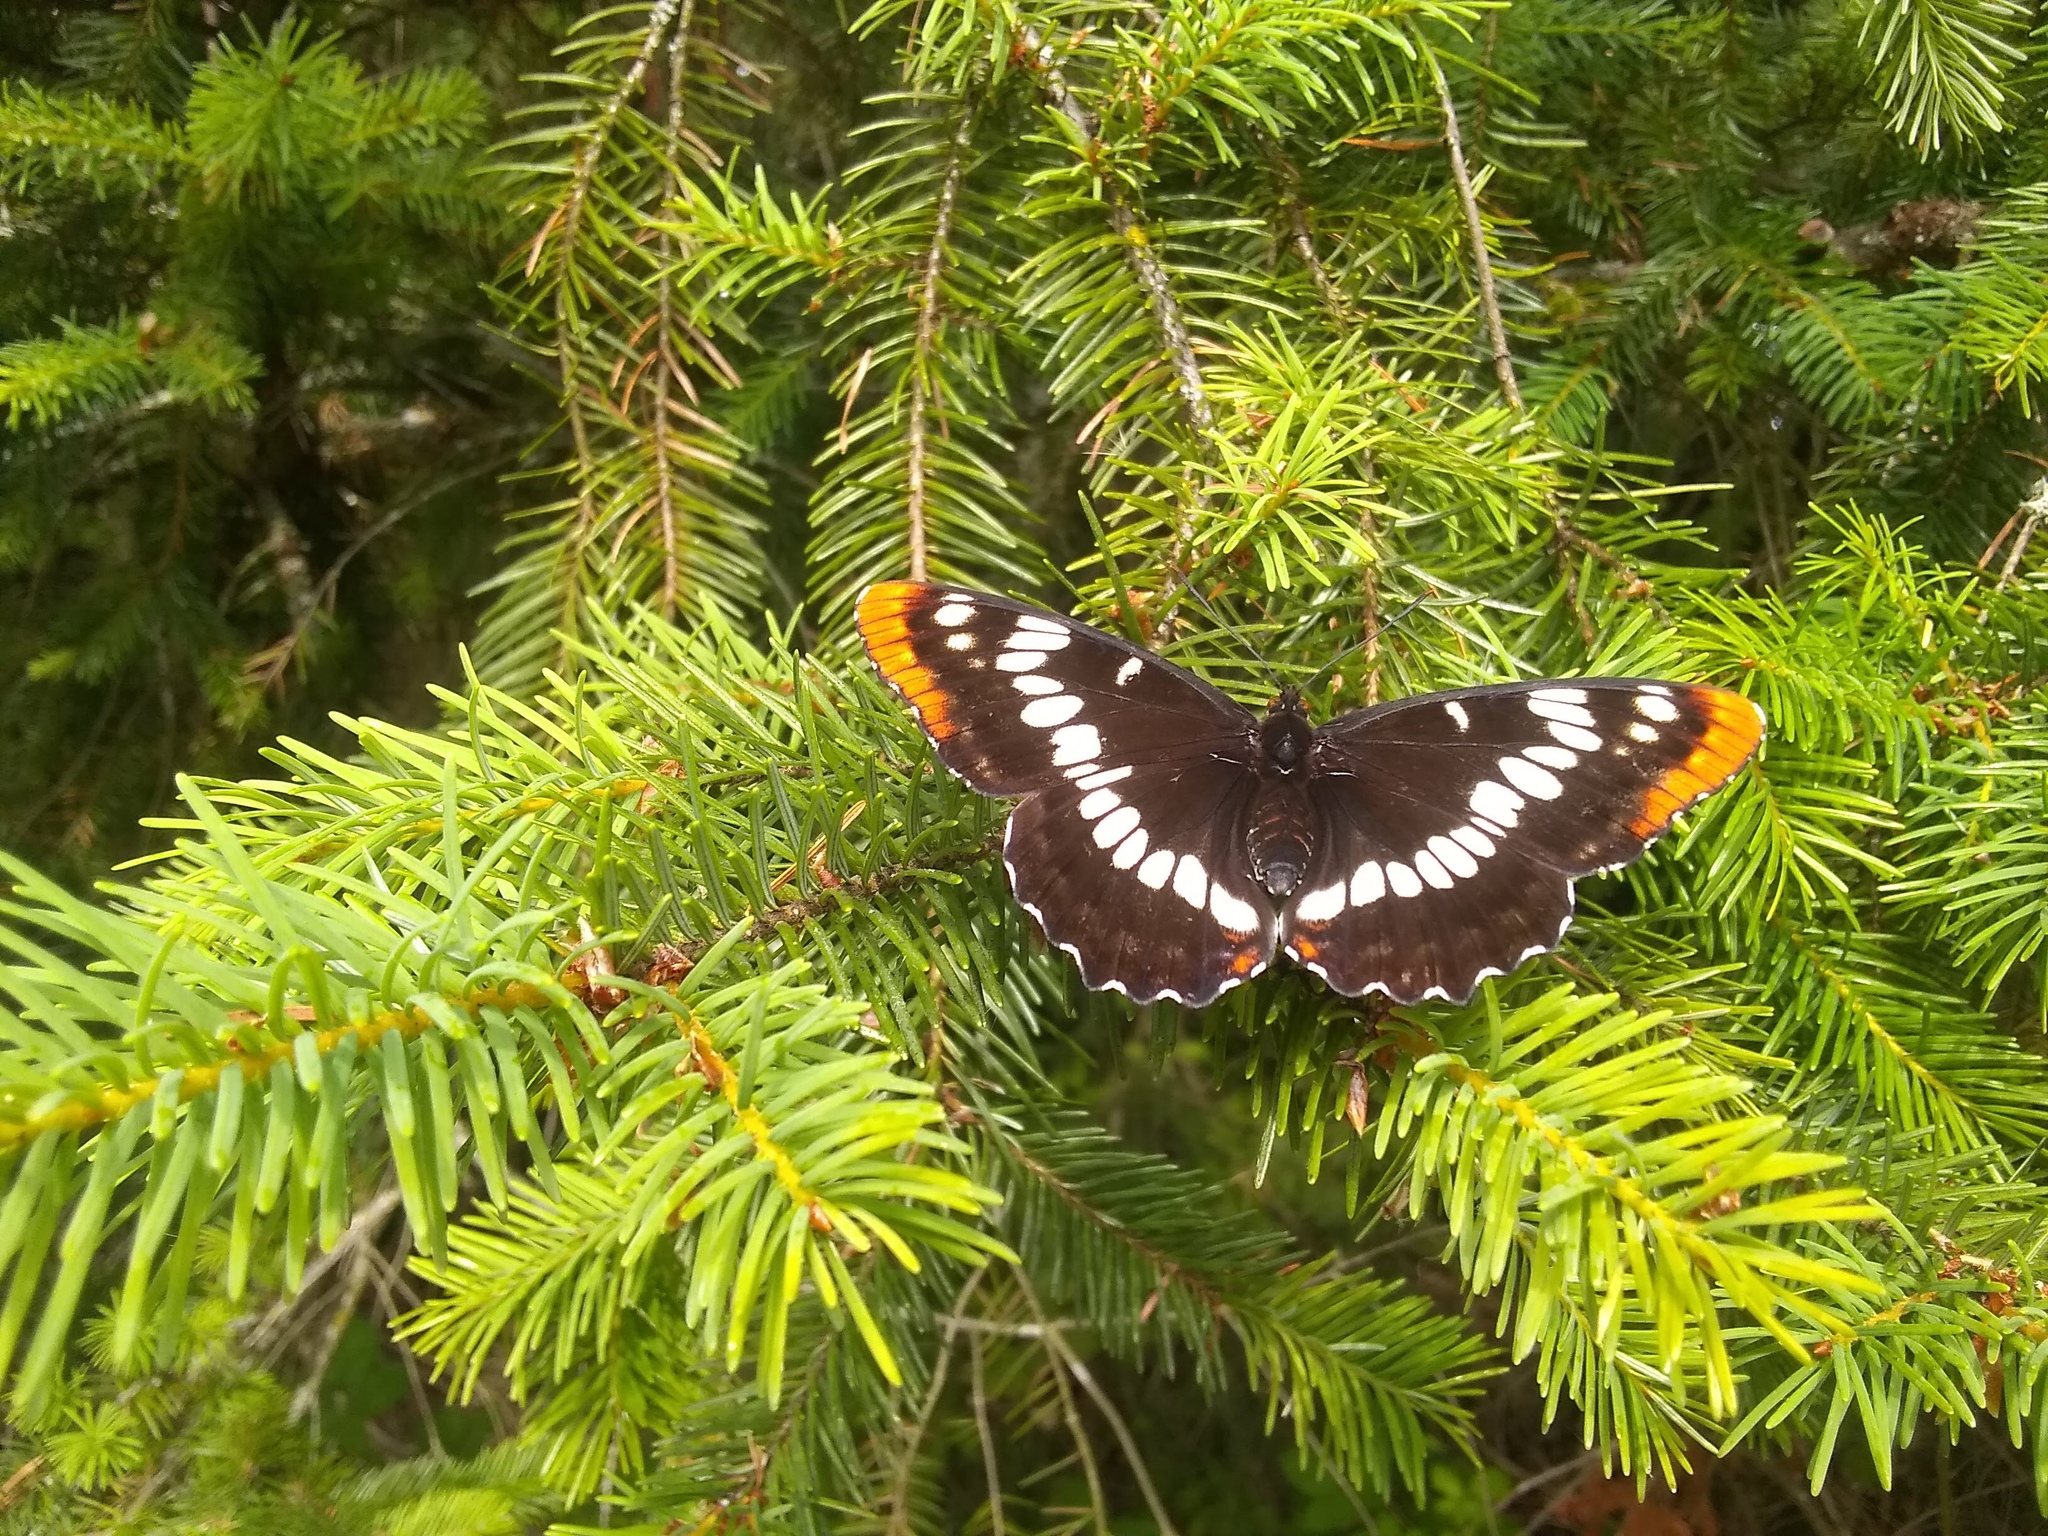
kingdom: Animalia
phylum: Arthropoda
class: Insecta
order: Lepidoptera
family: Nymphalidae
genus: Limenitis
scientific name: Limenitis lorquini
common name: Lorquin's admiral
